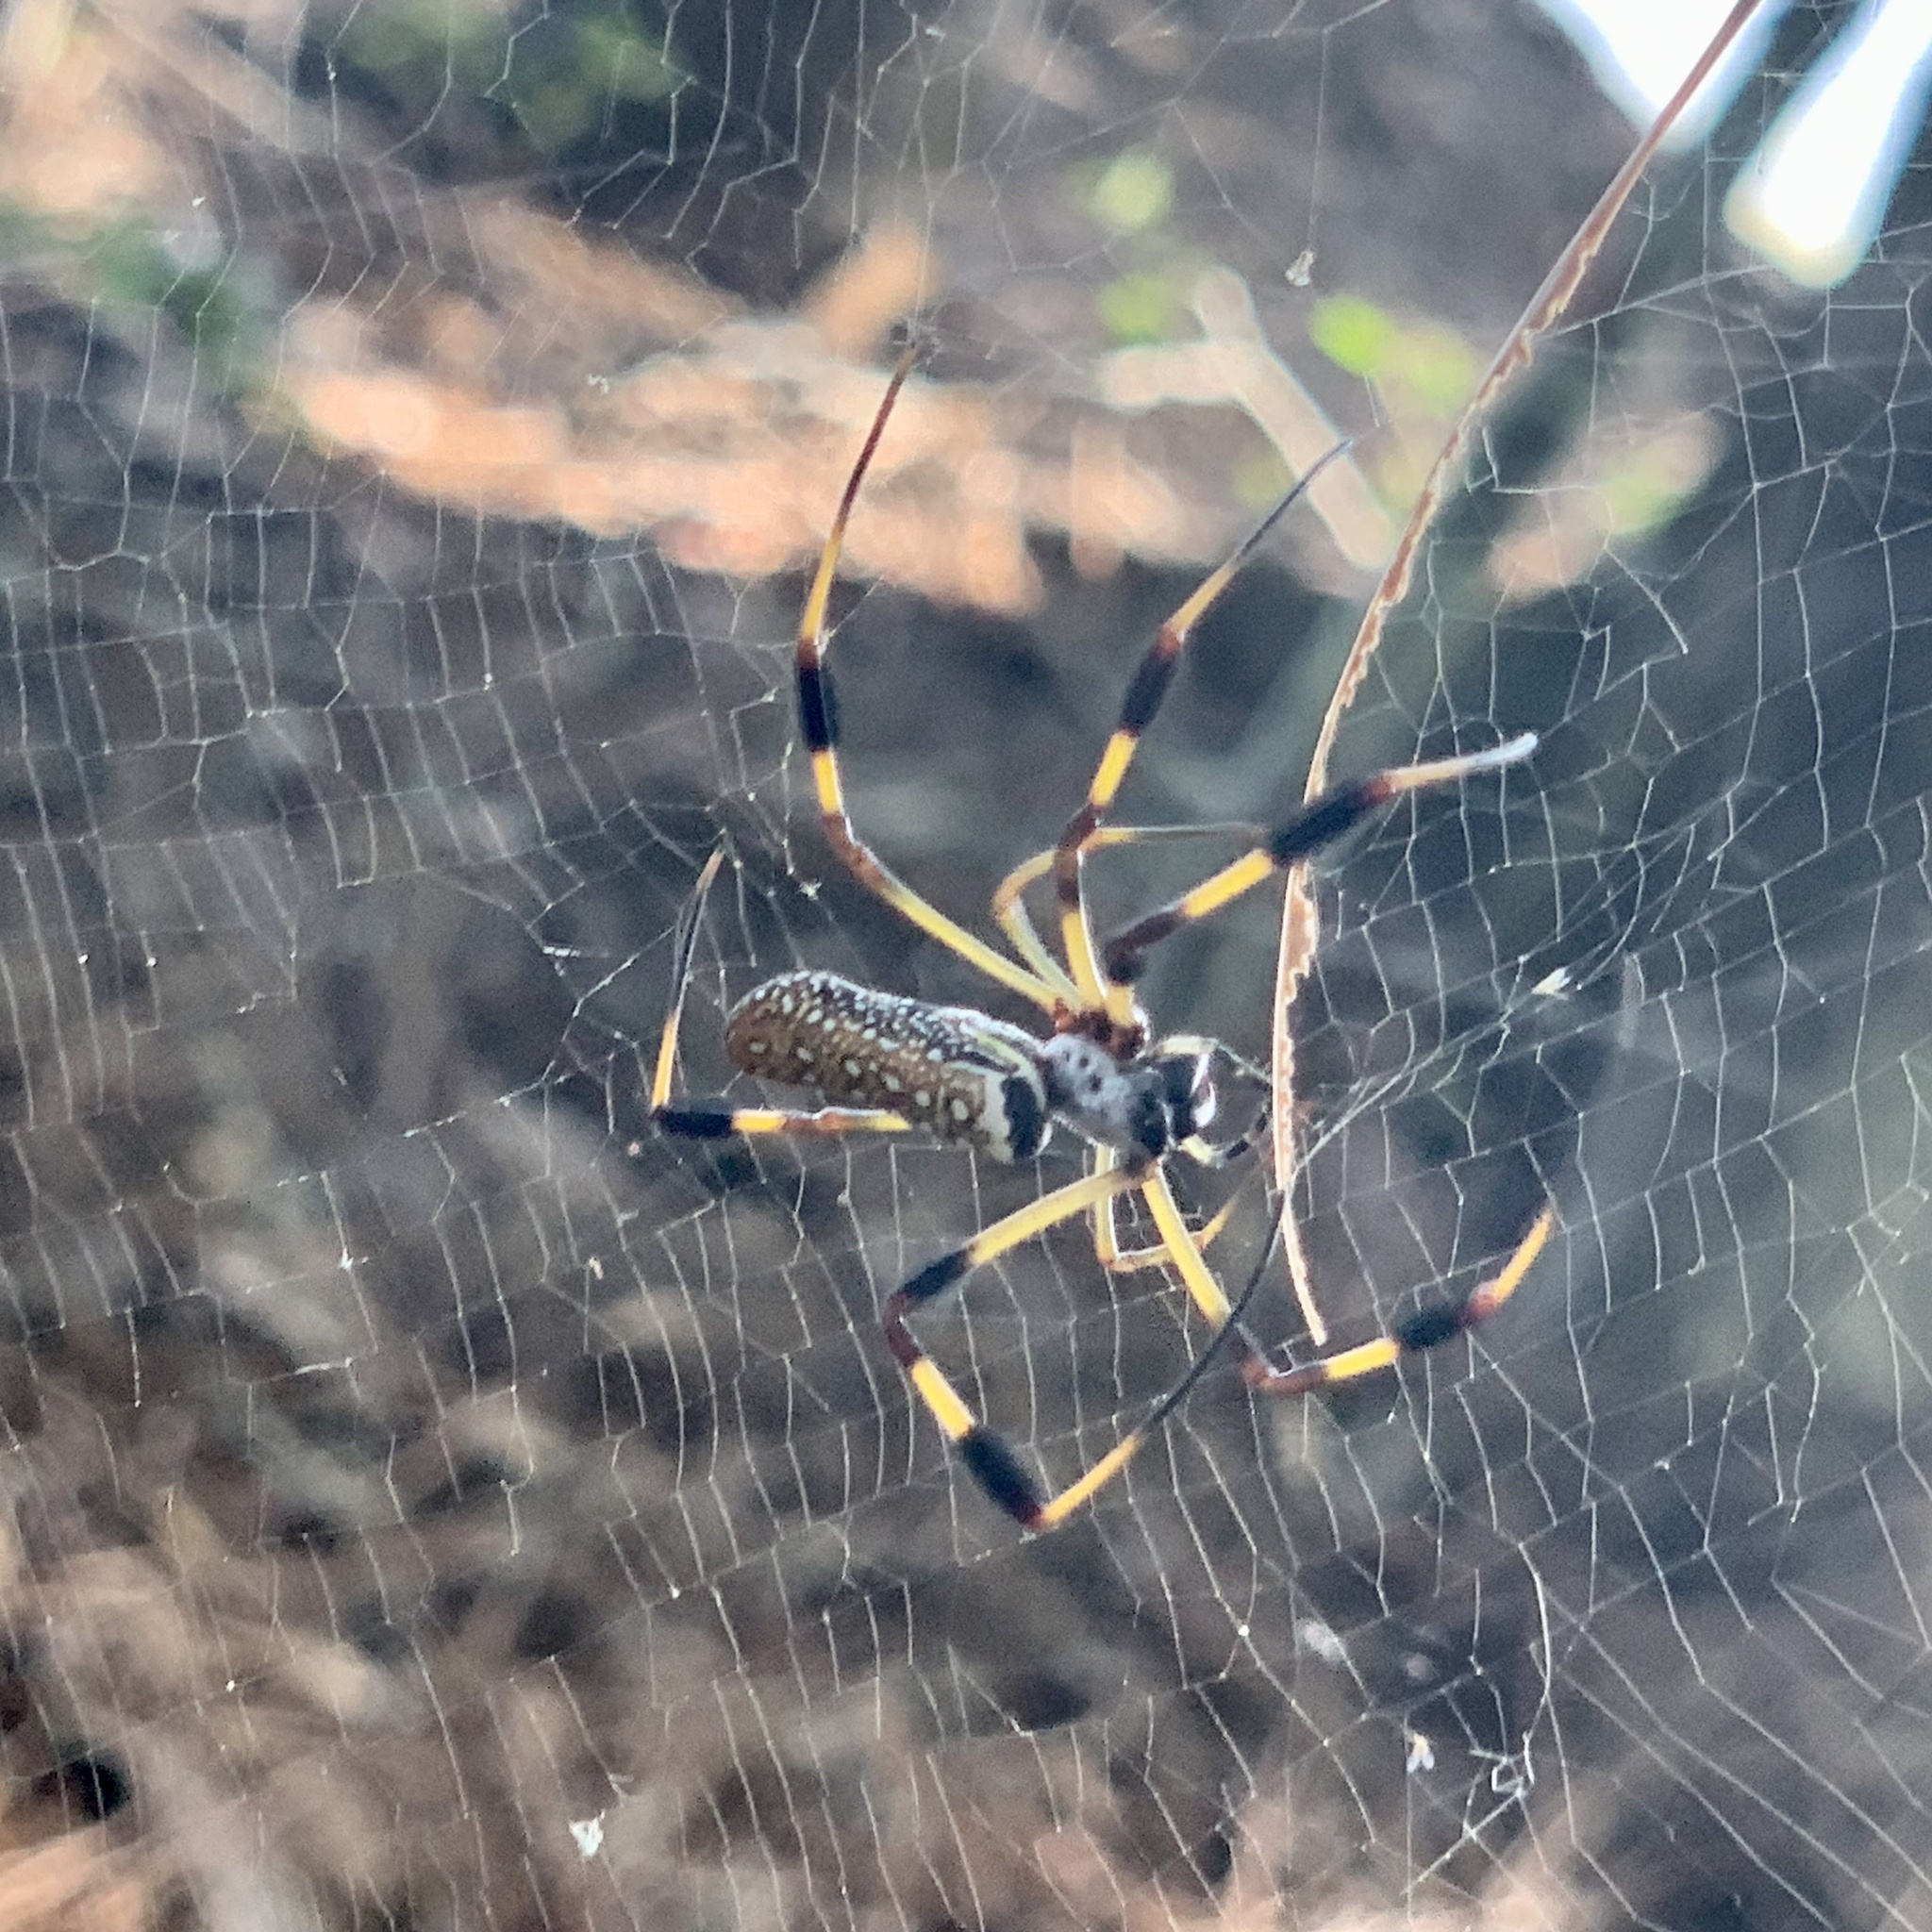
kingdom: Animalia
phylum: Arthropoda
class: Arachnida
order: Araneae
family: Araneidae
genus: Trichonephila
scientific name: Trichonephila clavipes
